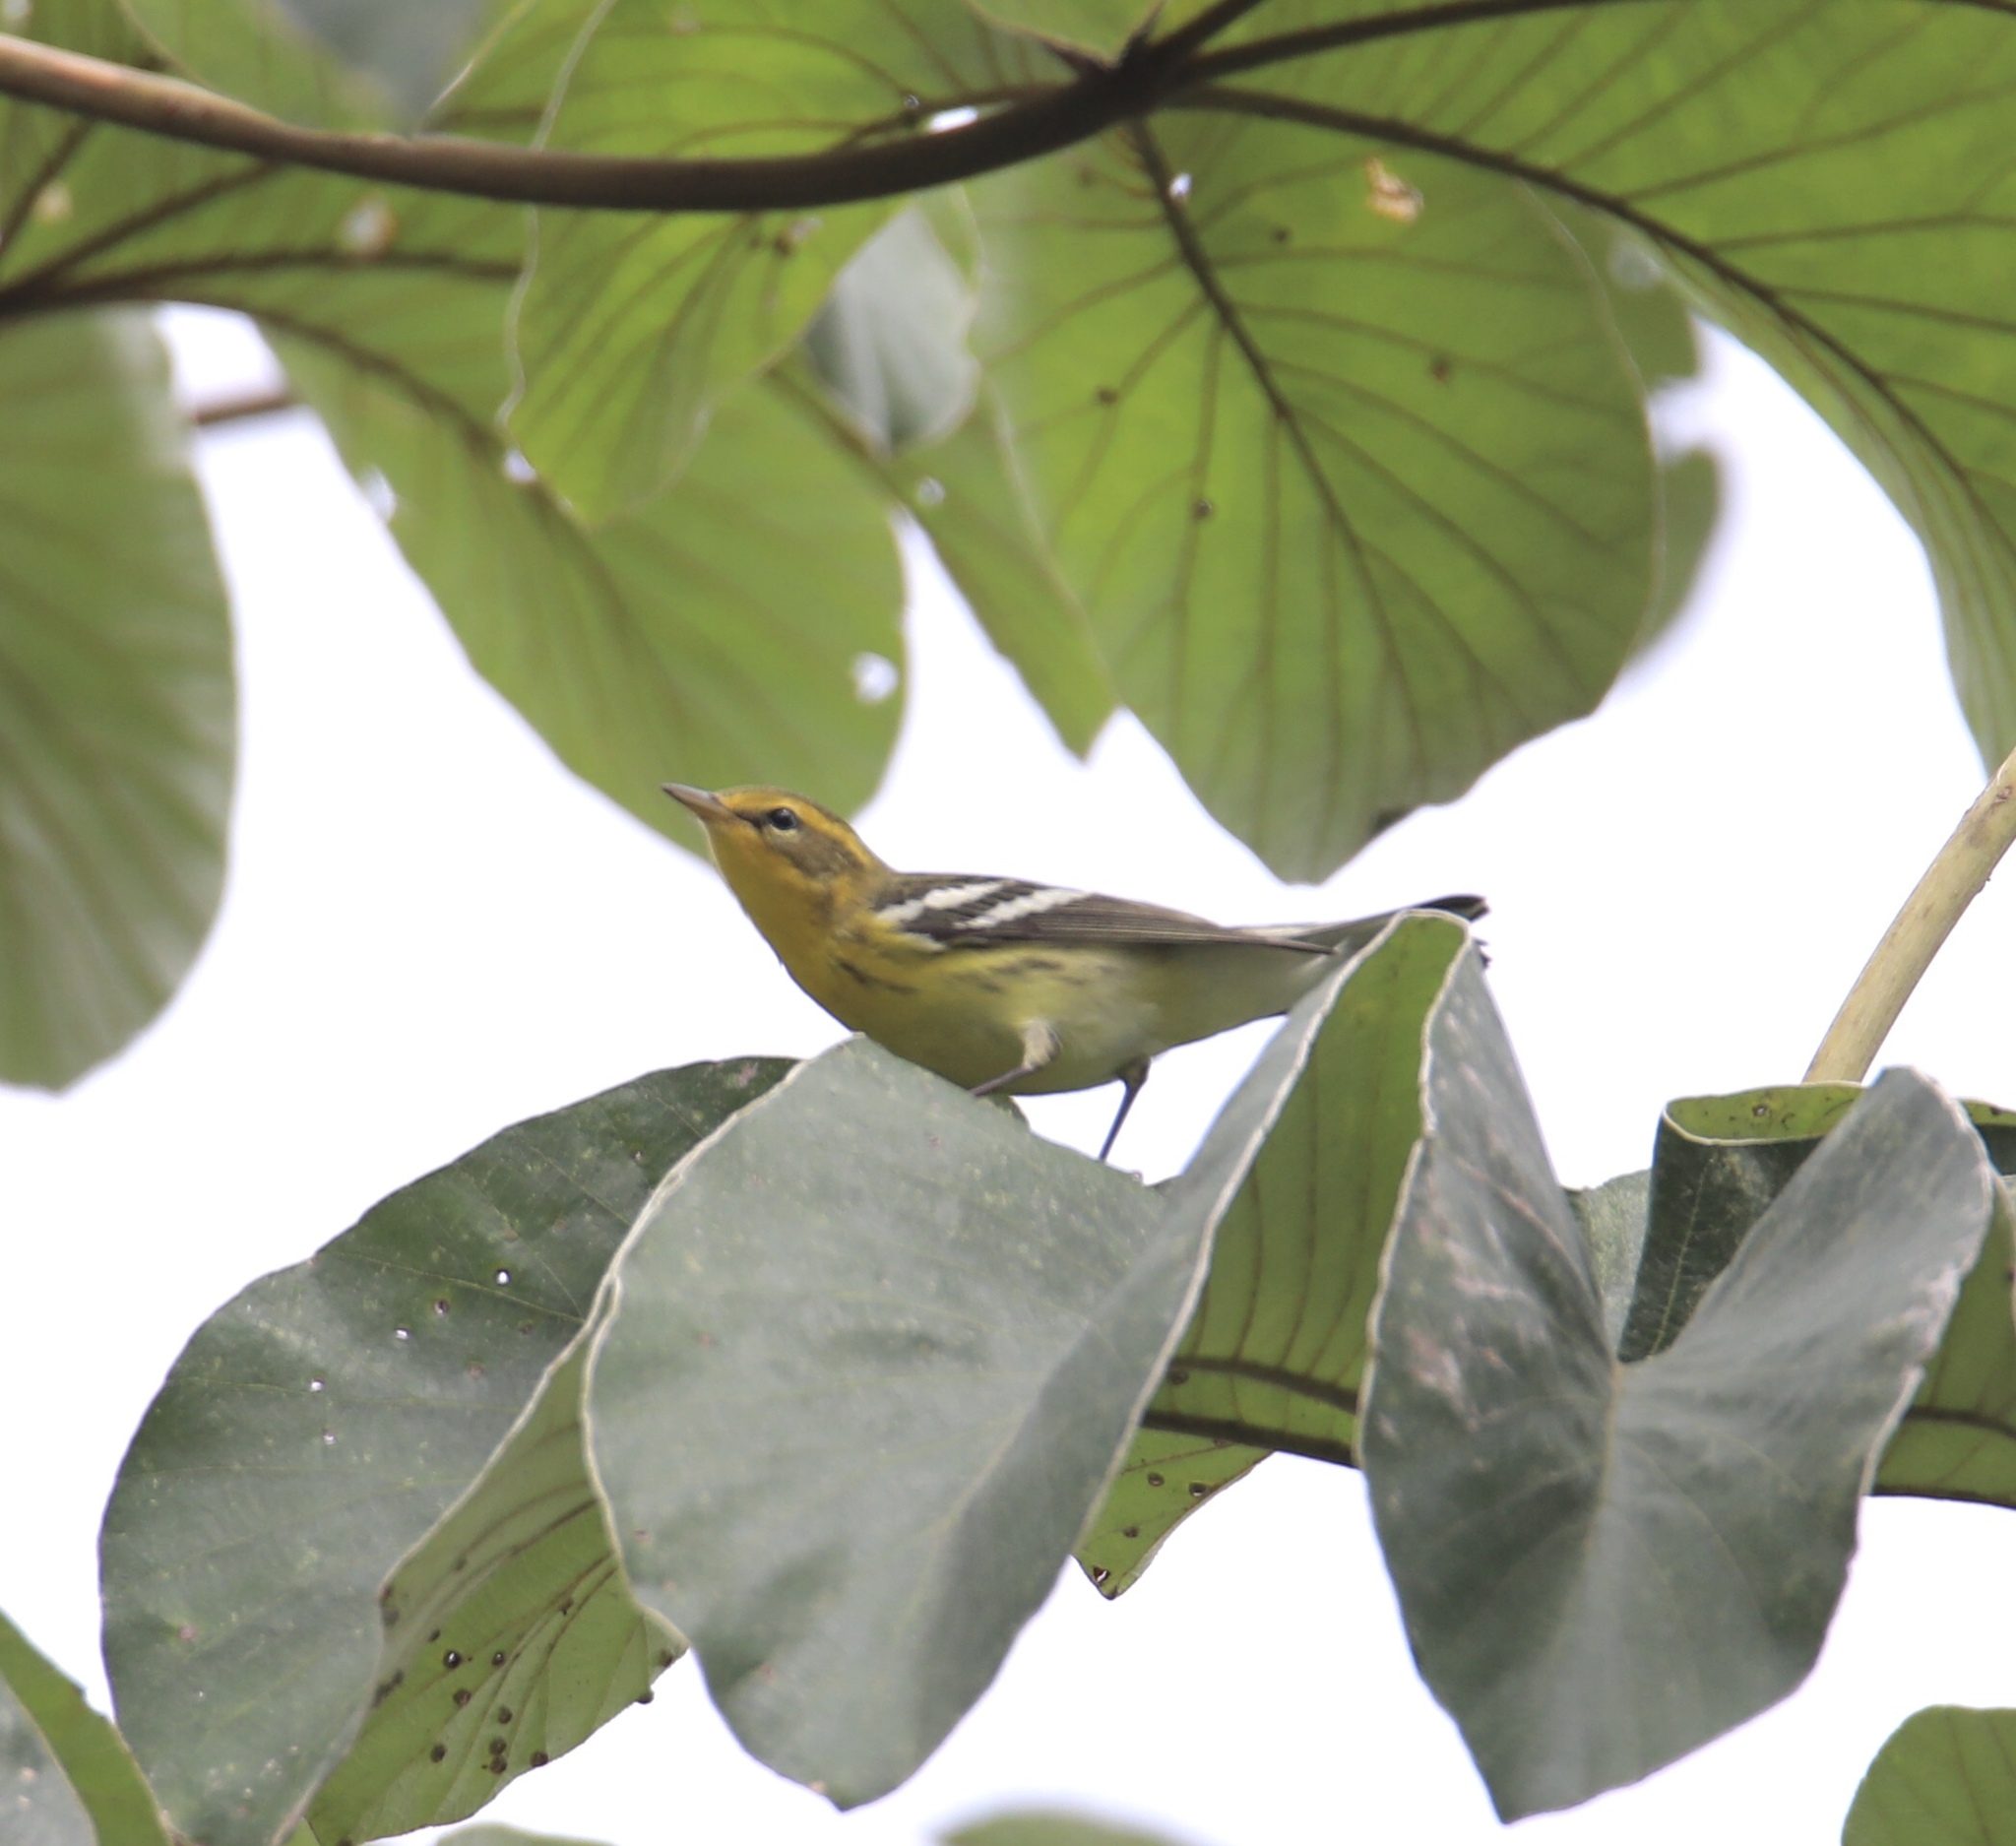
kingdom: Animalia
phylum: Chordata
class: Aves
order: Passeriformes
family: Parulidae
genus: Setophaga
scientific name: Setophaga fusca
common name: Blackburnian warbler
